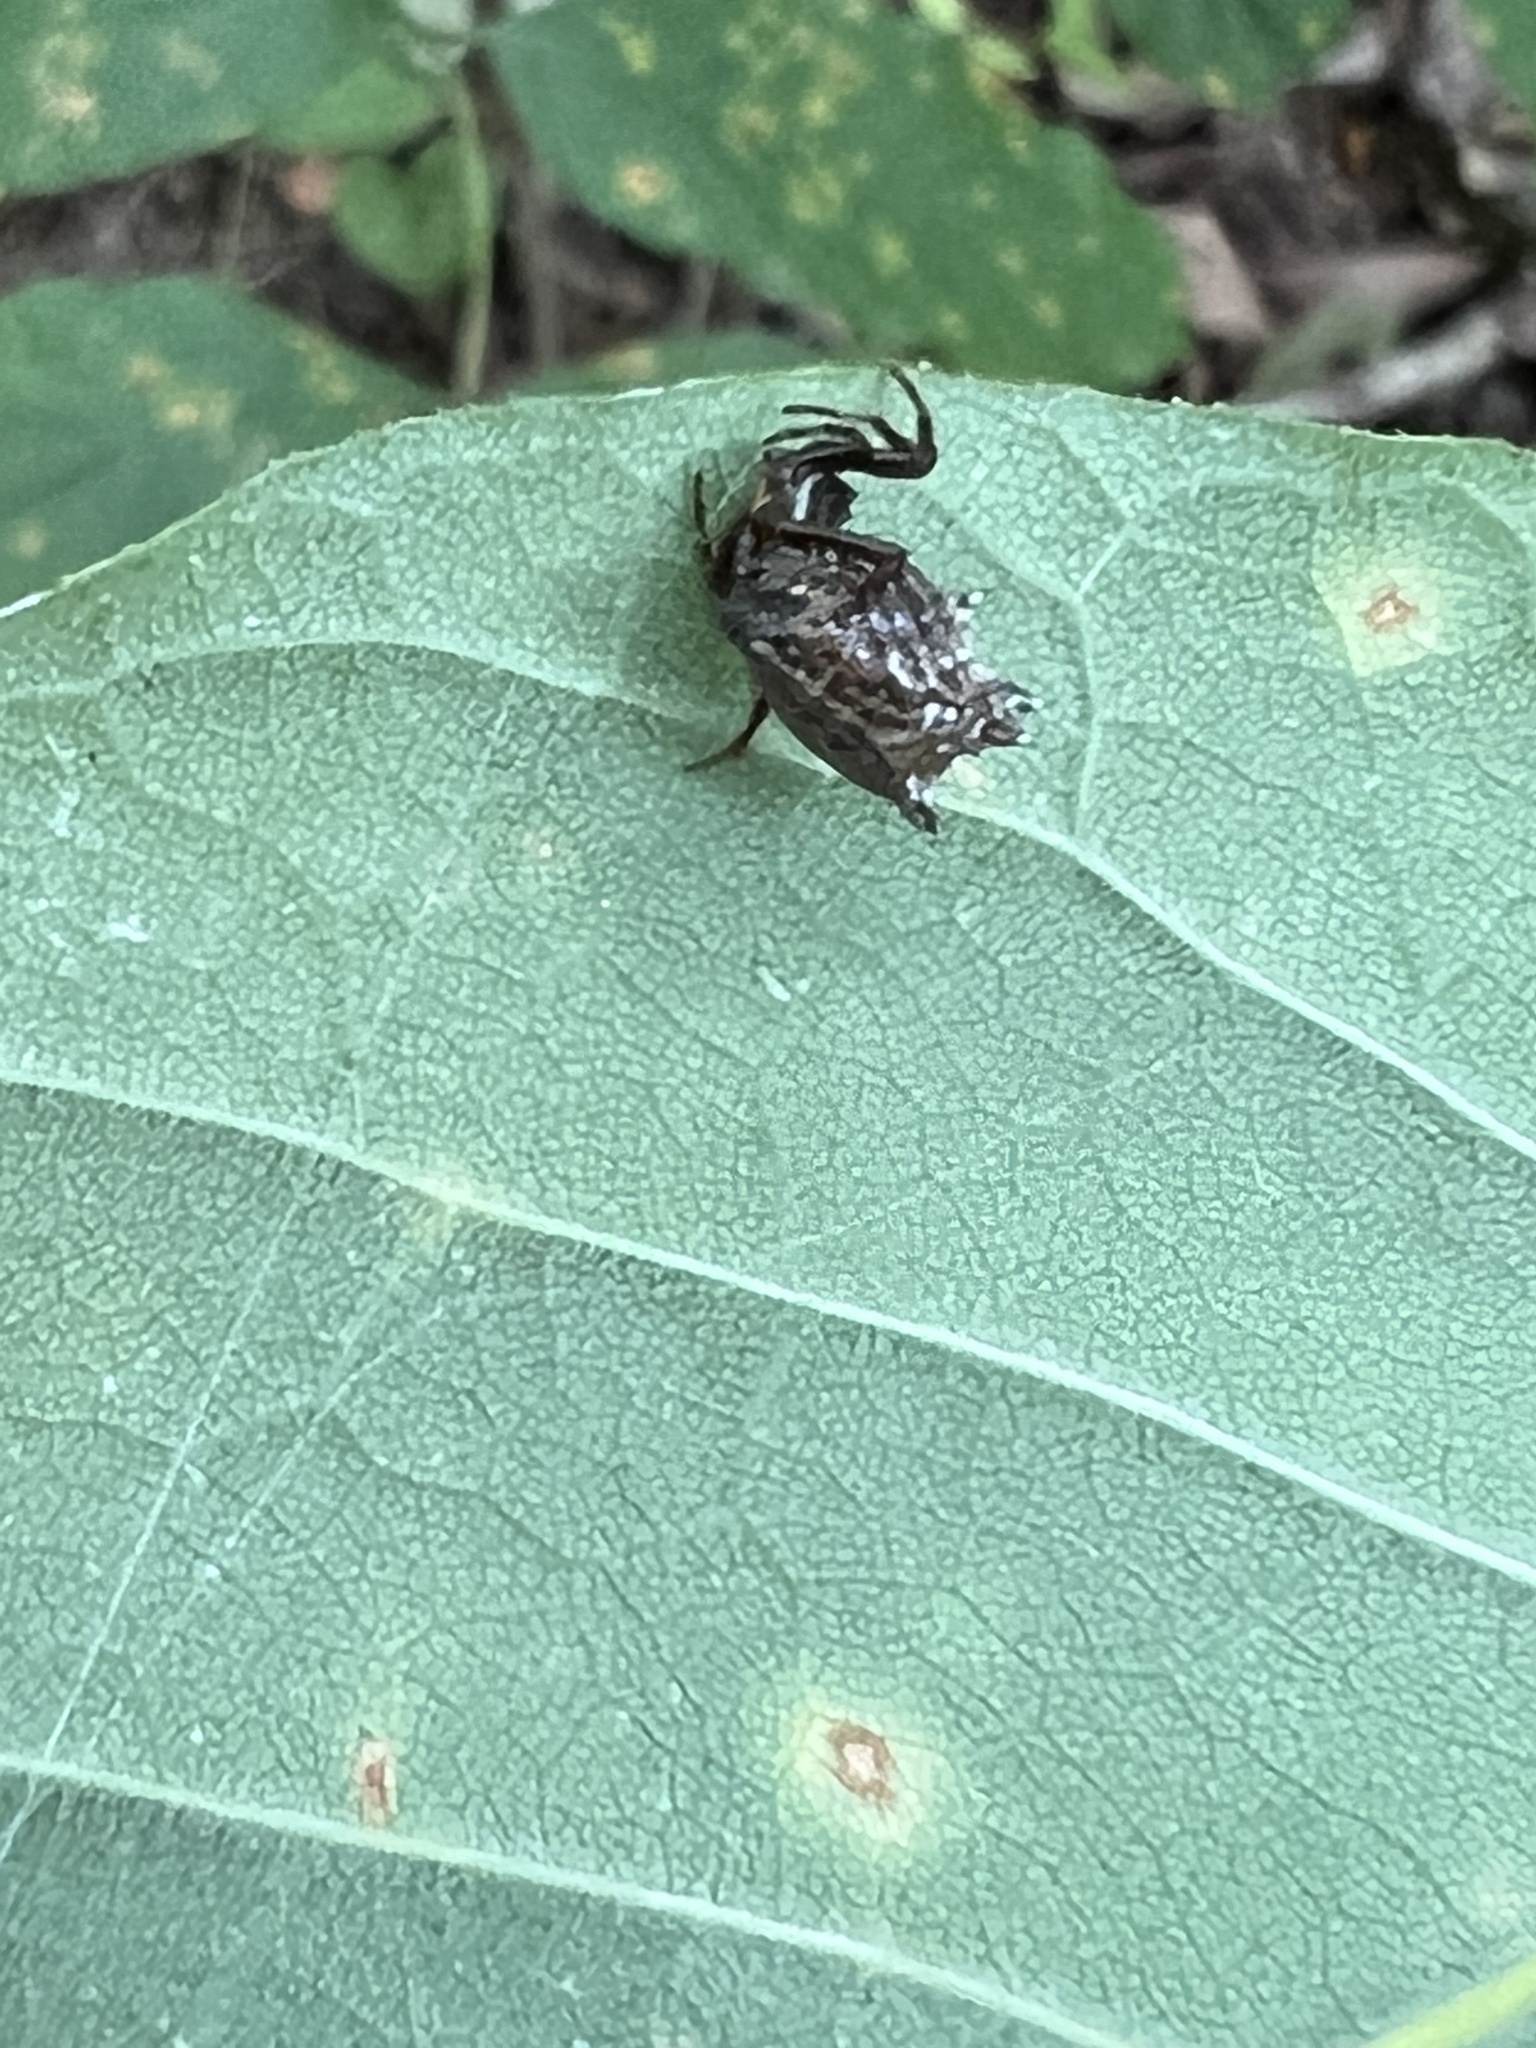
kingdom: Animalia
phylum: Arthropoda
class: Arachnida
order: Araneae
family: Araneidae
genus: Micrathena
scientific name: Micrathena gracilis
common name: Orb weavers
